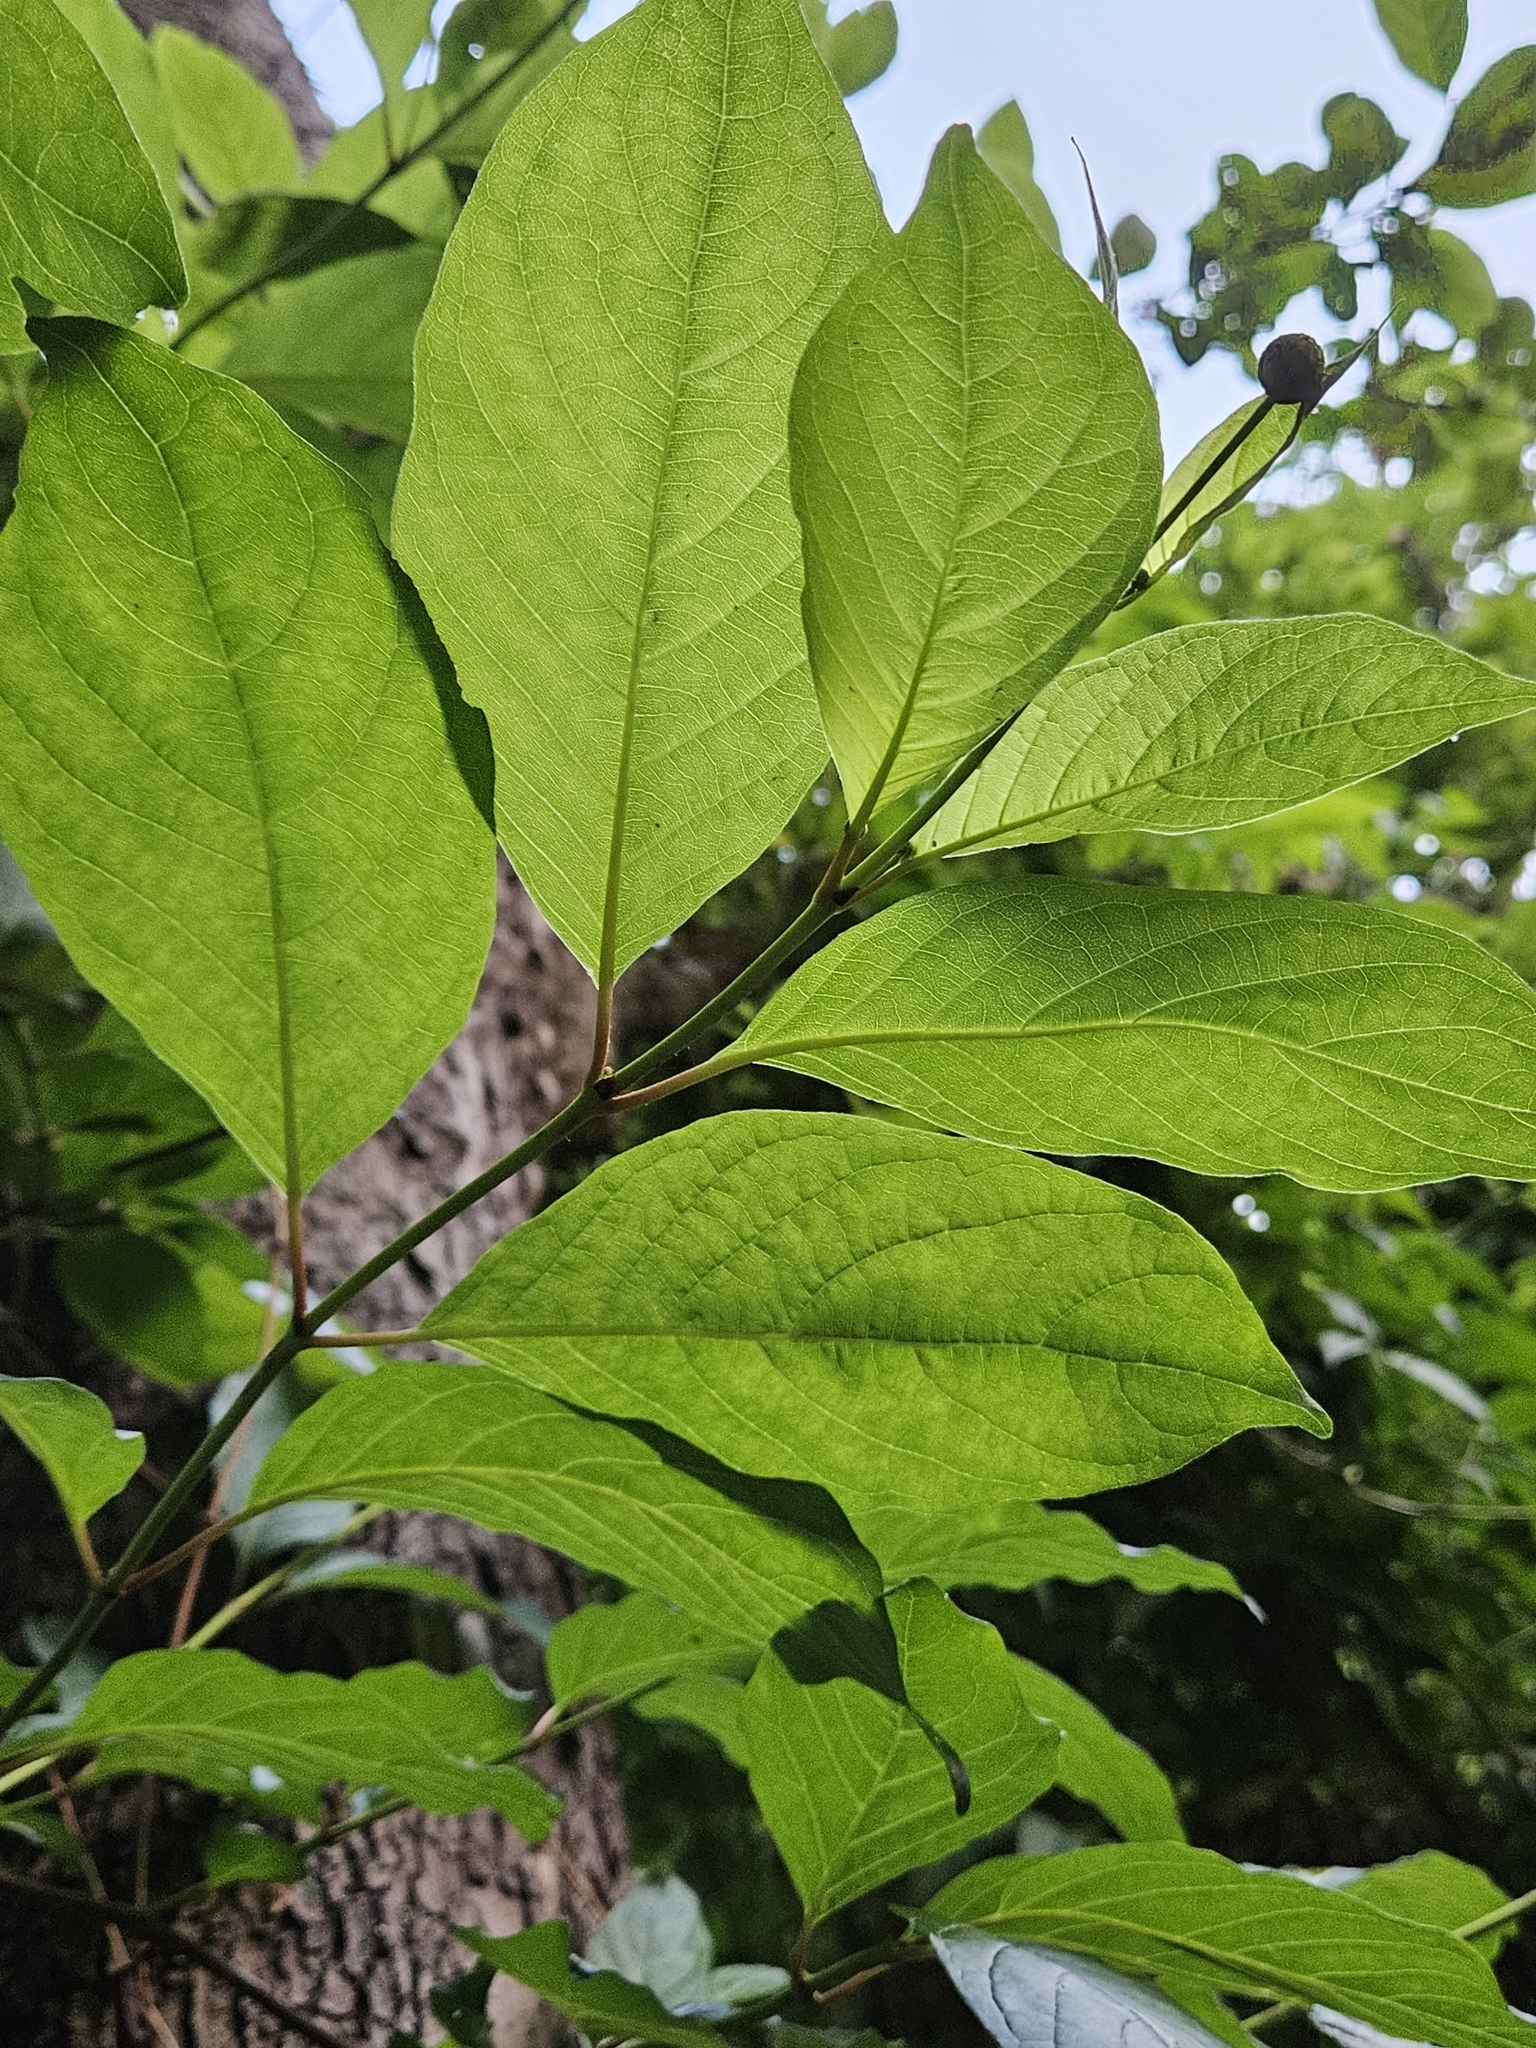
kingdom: Plantae
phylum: Tracheophyta
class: Magnoliopsida
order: Gentianales
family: Rubiaceae
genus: Cephalanthus
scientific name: Cephalanthus occidentalis
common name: Button-willow
